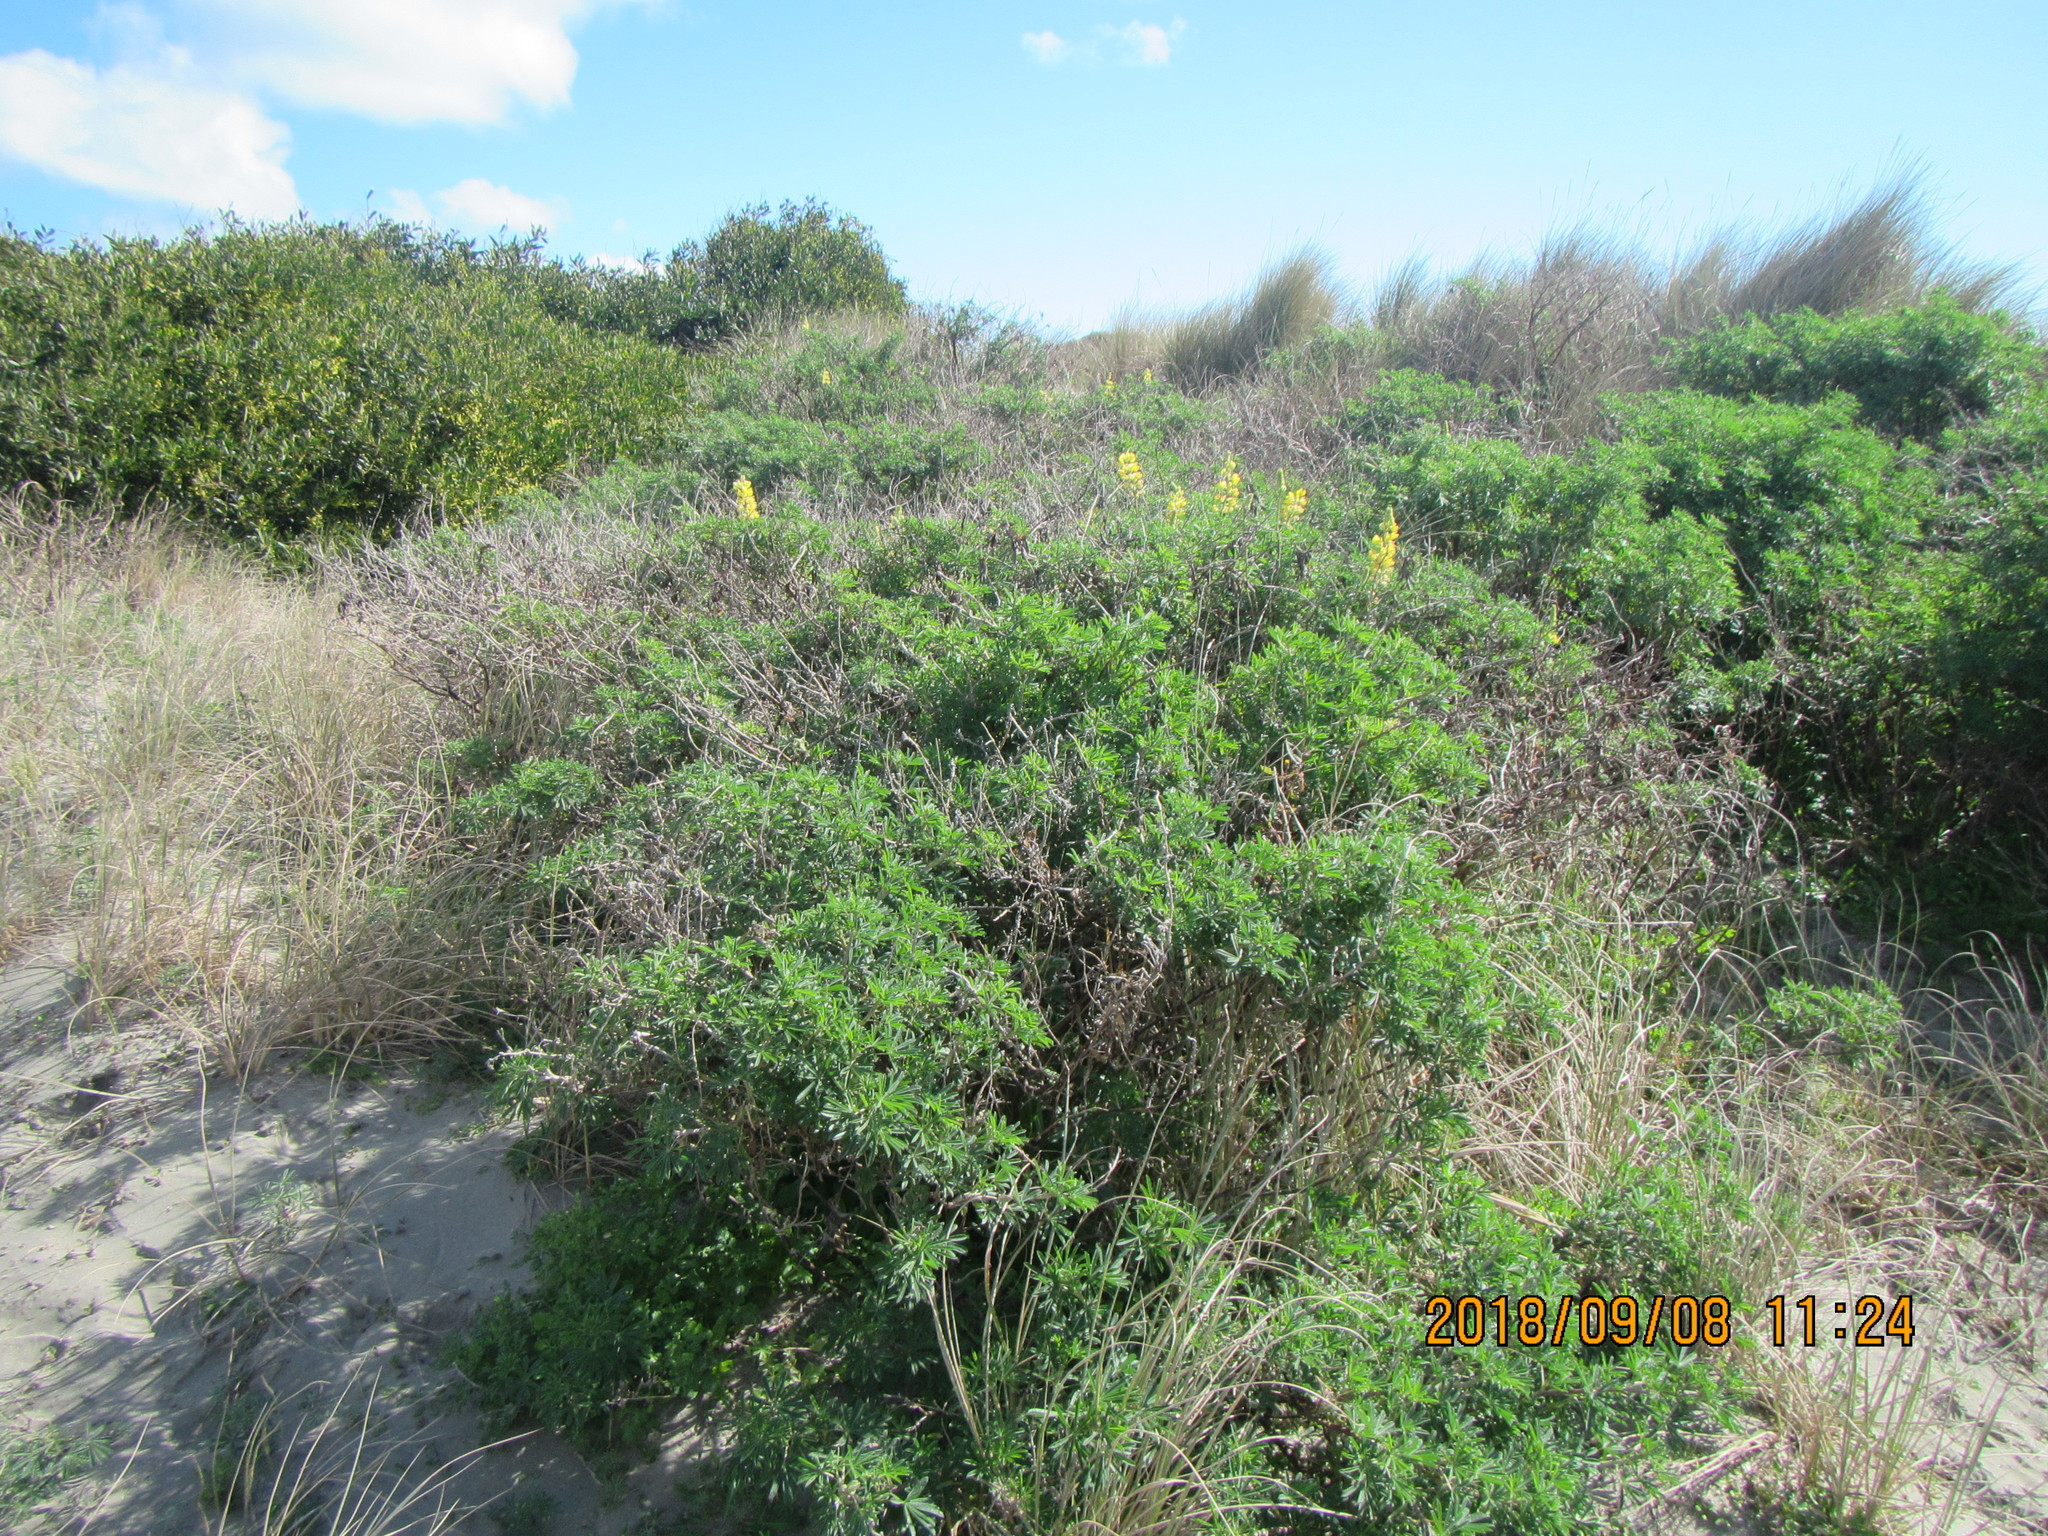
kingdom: Plantae
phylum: Tracheophyta
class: Magnoliopsida
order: Fabales
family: Fabaceae
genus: Lupinus
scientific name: Lupinus arboreus
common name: Yellow bush lupine
